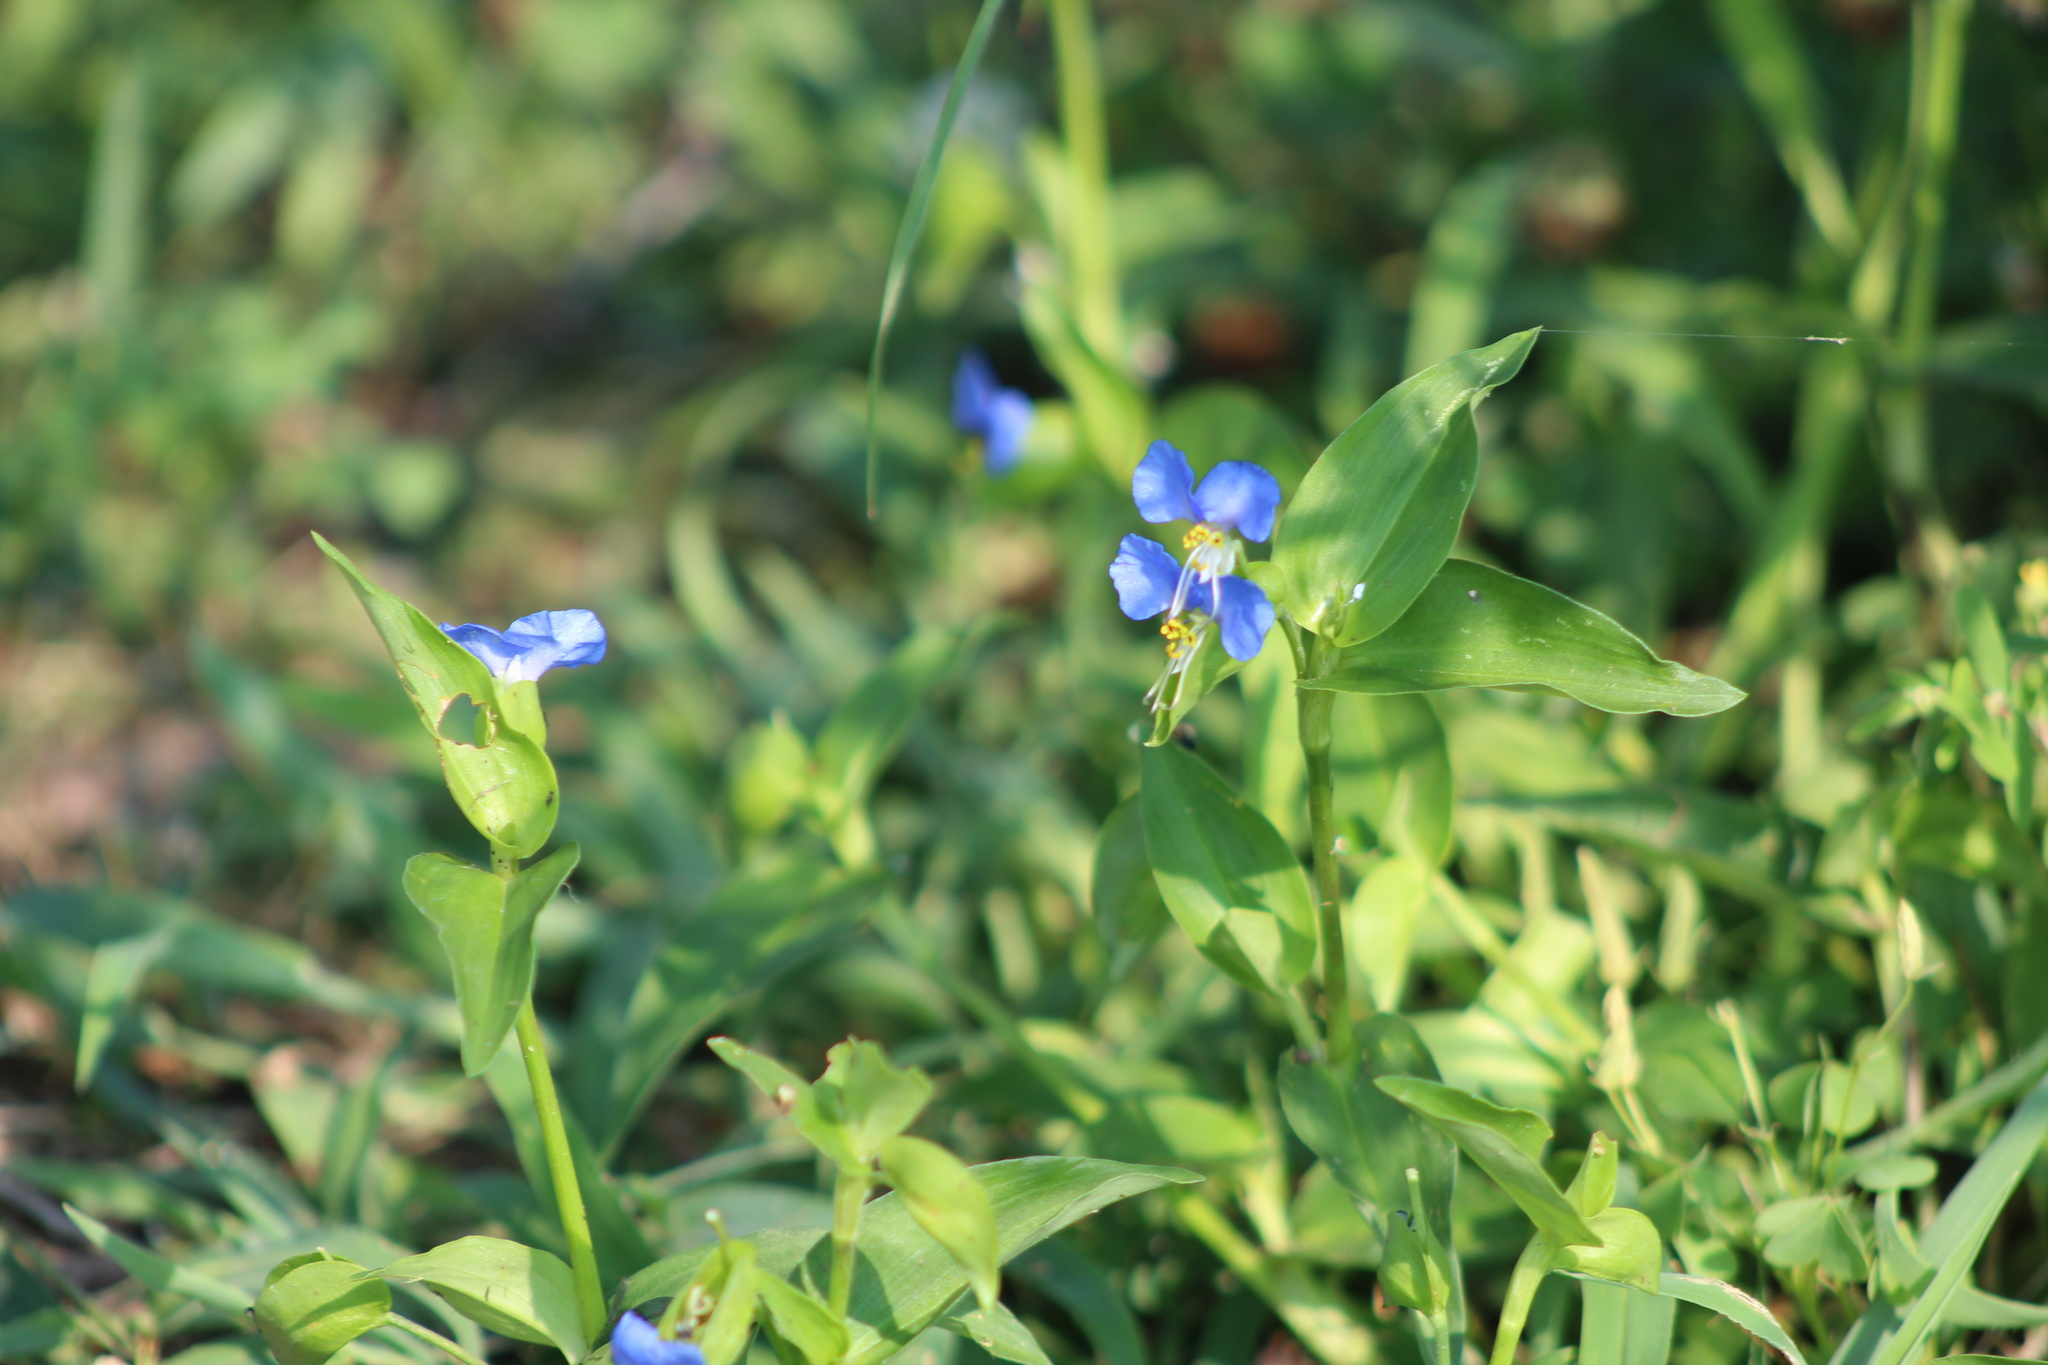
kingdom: Plantae
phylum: Tracheophyta
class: Liliopsida
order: Commelinales
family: Commelinaceae
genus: Commelina
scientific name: Commelina communis
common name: Asiatic dayflower
